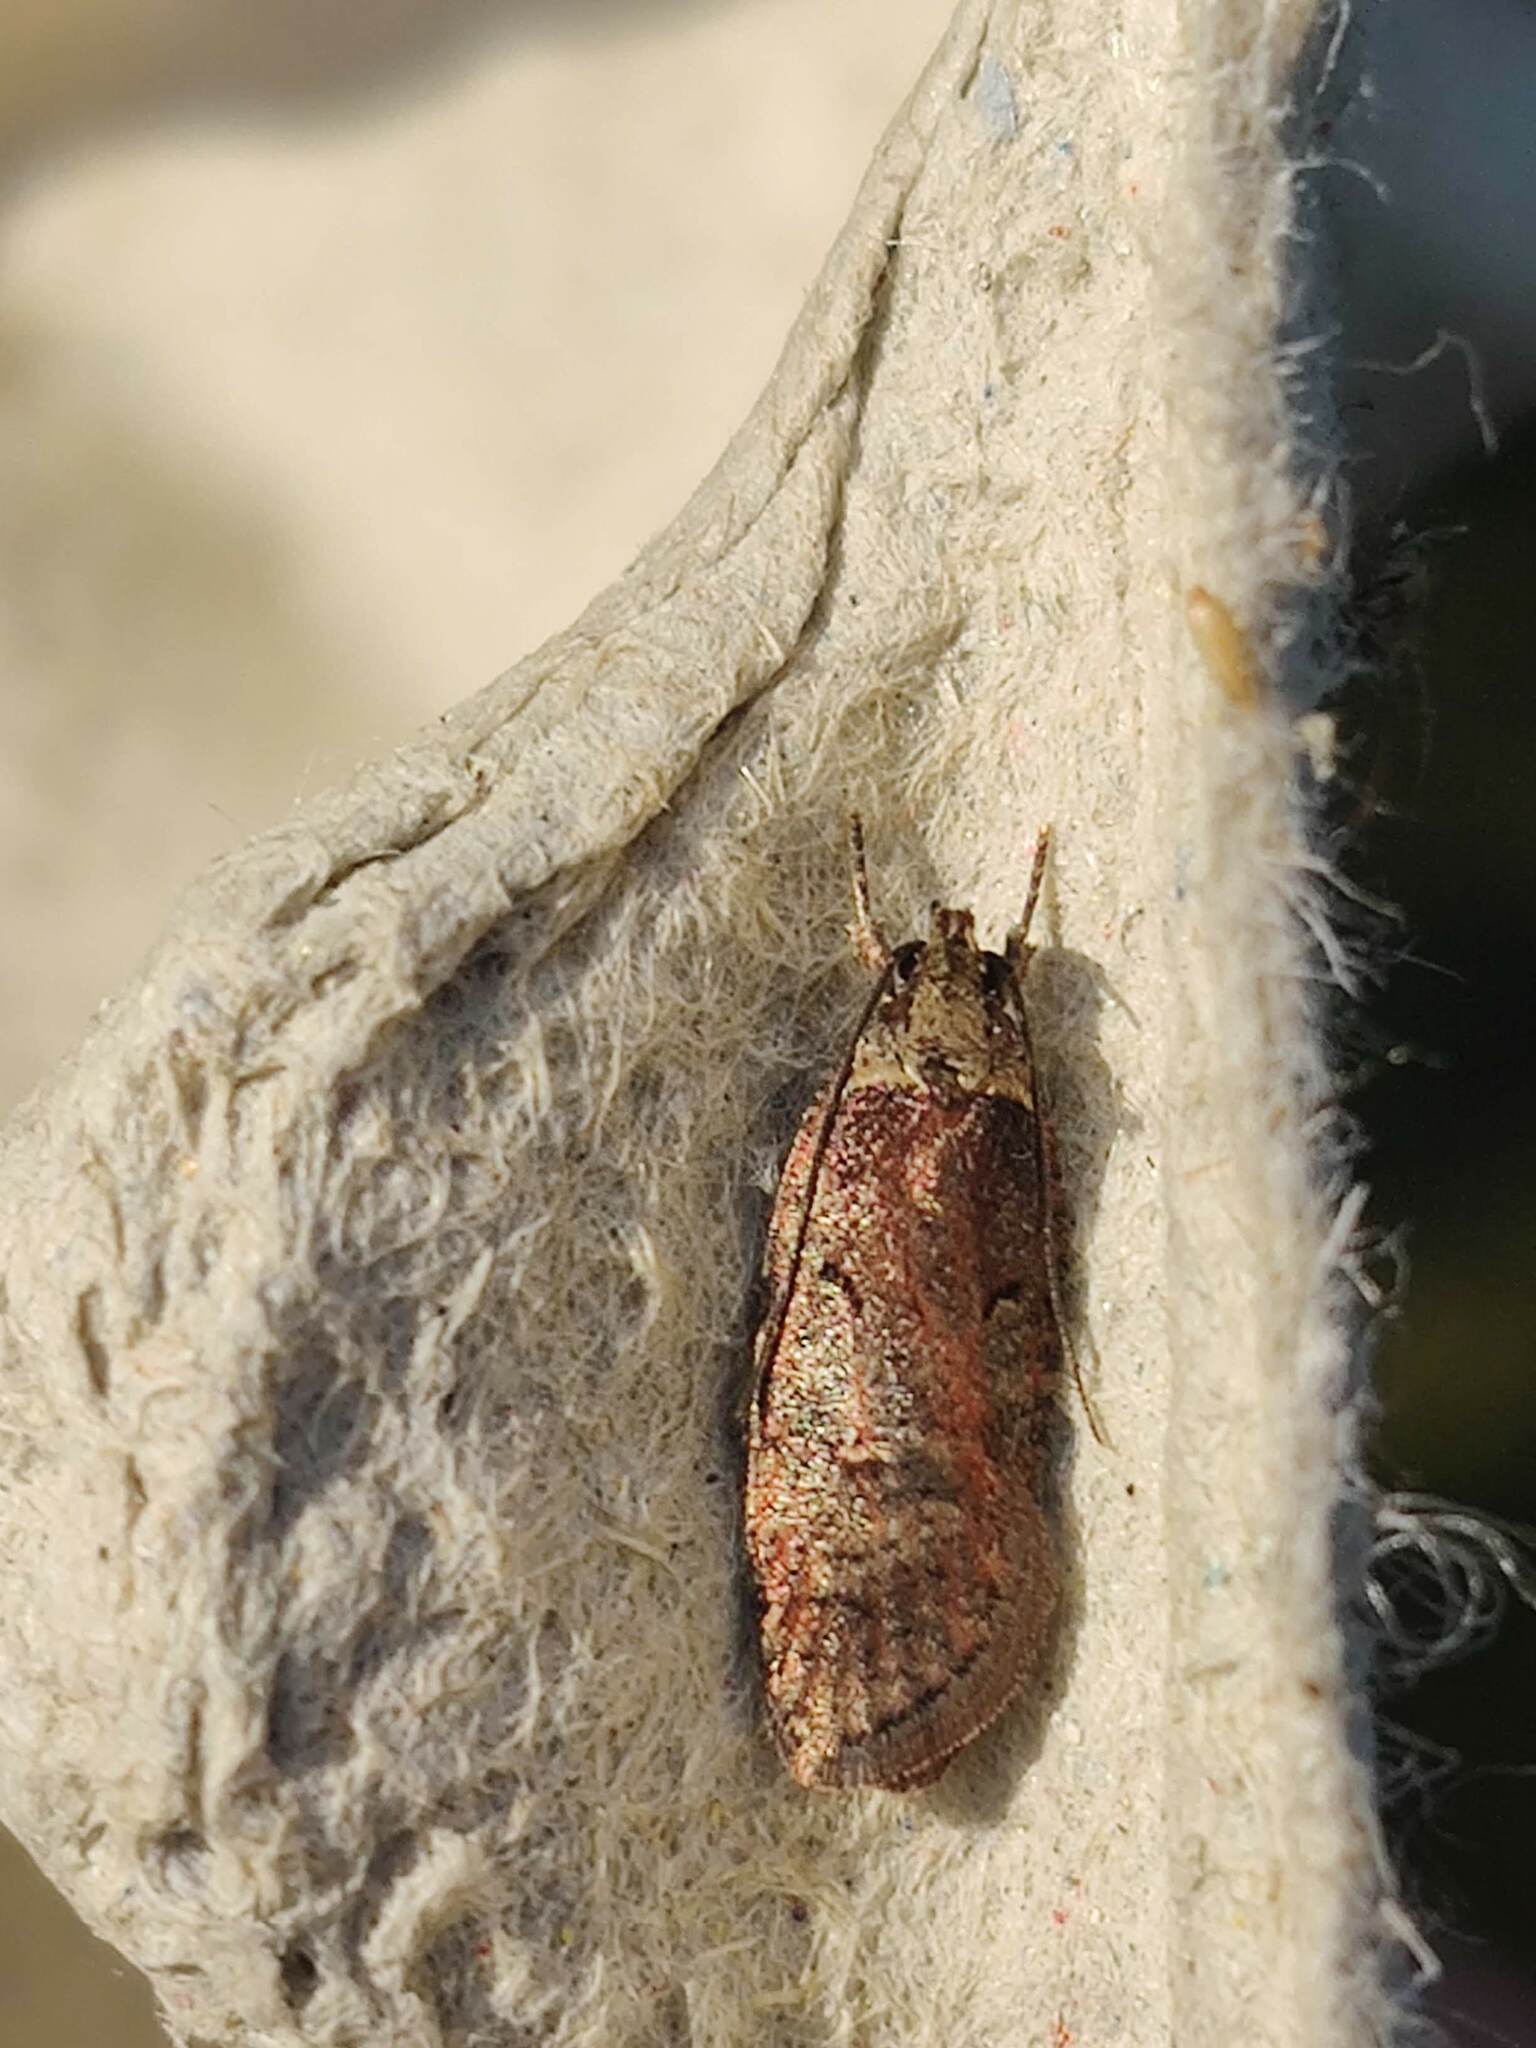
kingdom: Animalia
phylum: Arthropoda
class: Insecta
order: Lepidoptera
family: Depressariidae
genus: Agonopterix
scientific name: Agonopterix conterminella
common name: Sallow flat-body
